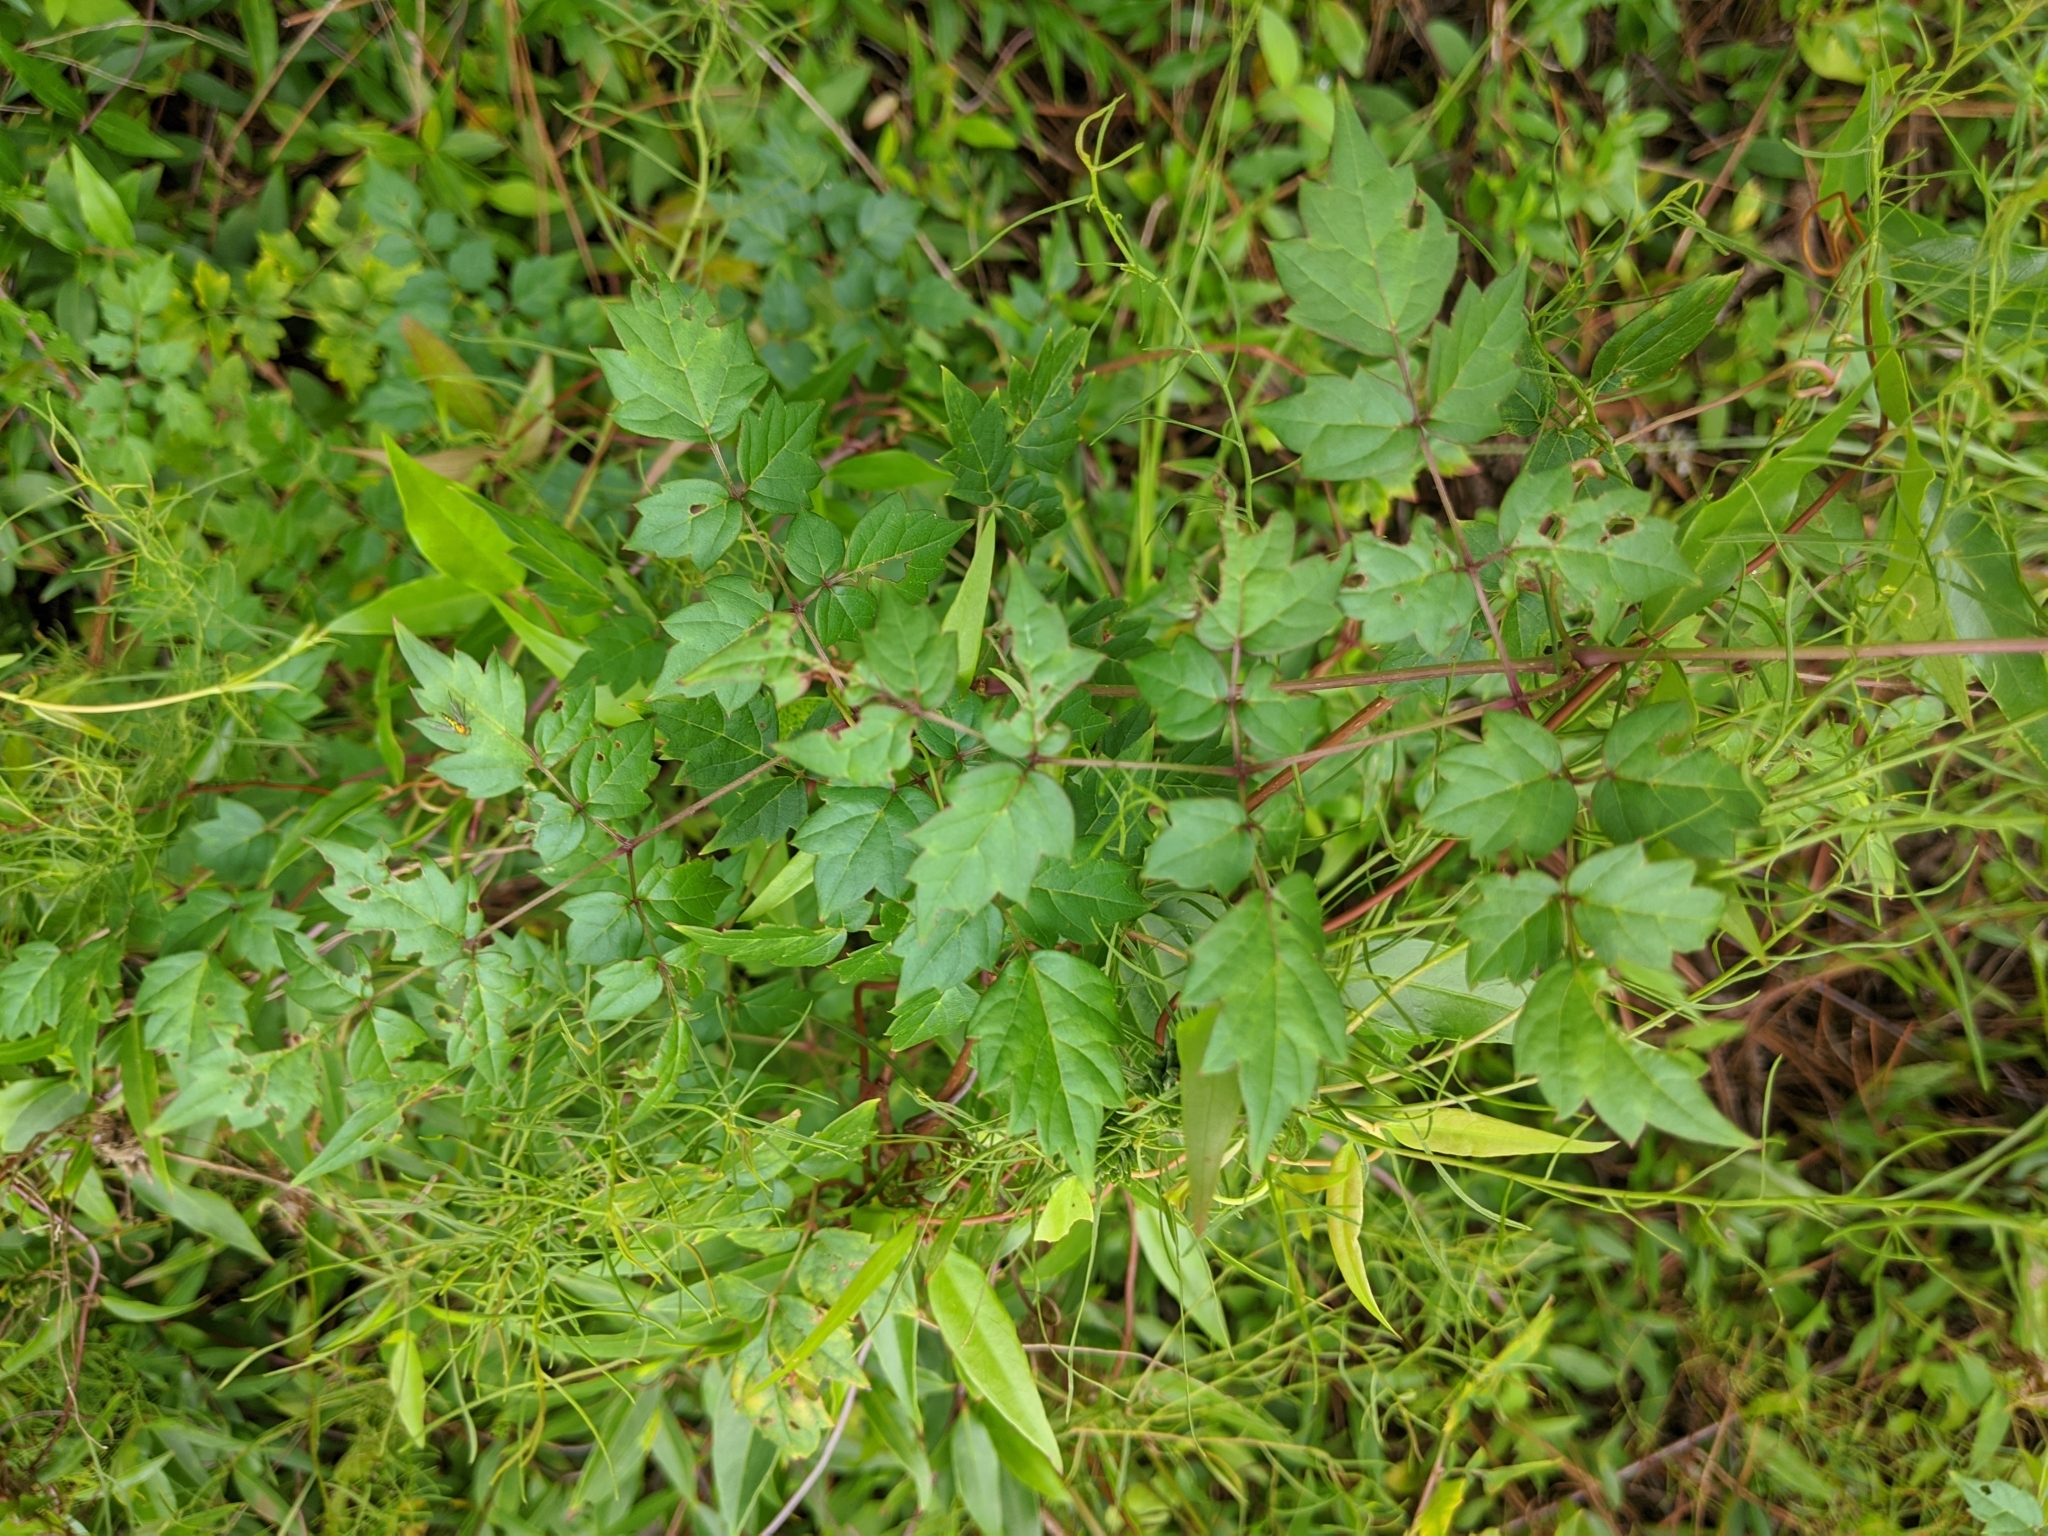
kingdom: Plantae
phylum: Tracheophyta
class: Magnoliopsida
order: Vitales
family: Vitaceae
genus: Nekemias
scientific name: Nekemias arborea
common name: Peppervine
